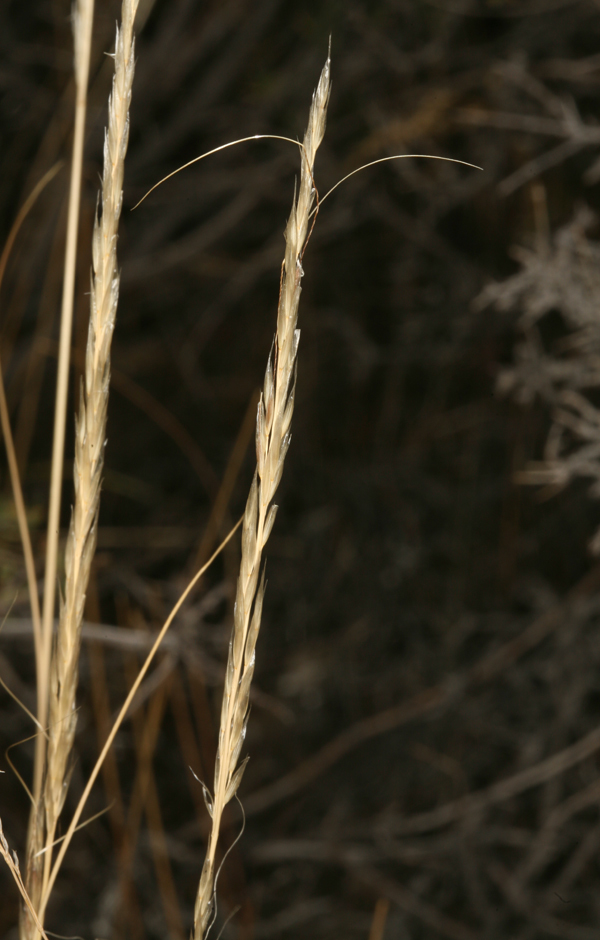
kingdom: Plantae
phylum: Tracheophyta
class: Liliopsida
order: Poales
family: Poaceae
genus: Eriocoma
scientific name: Eriocoma arida
